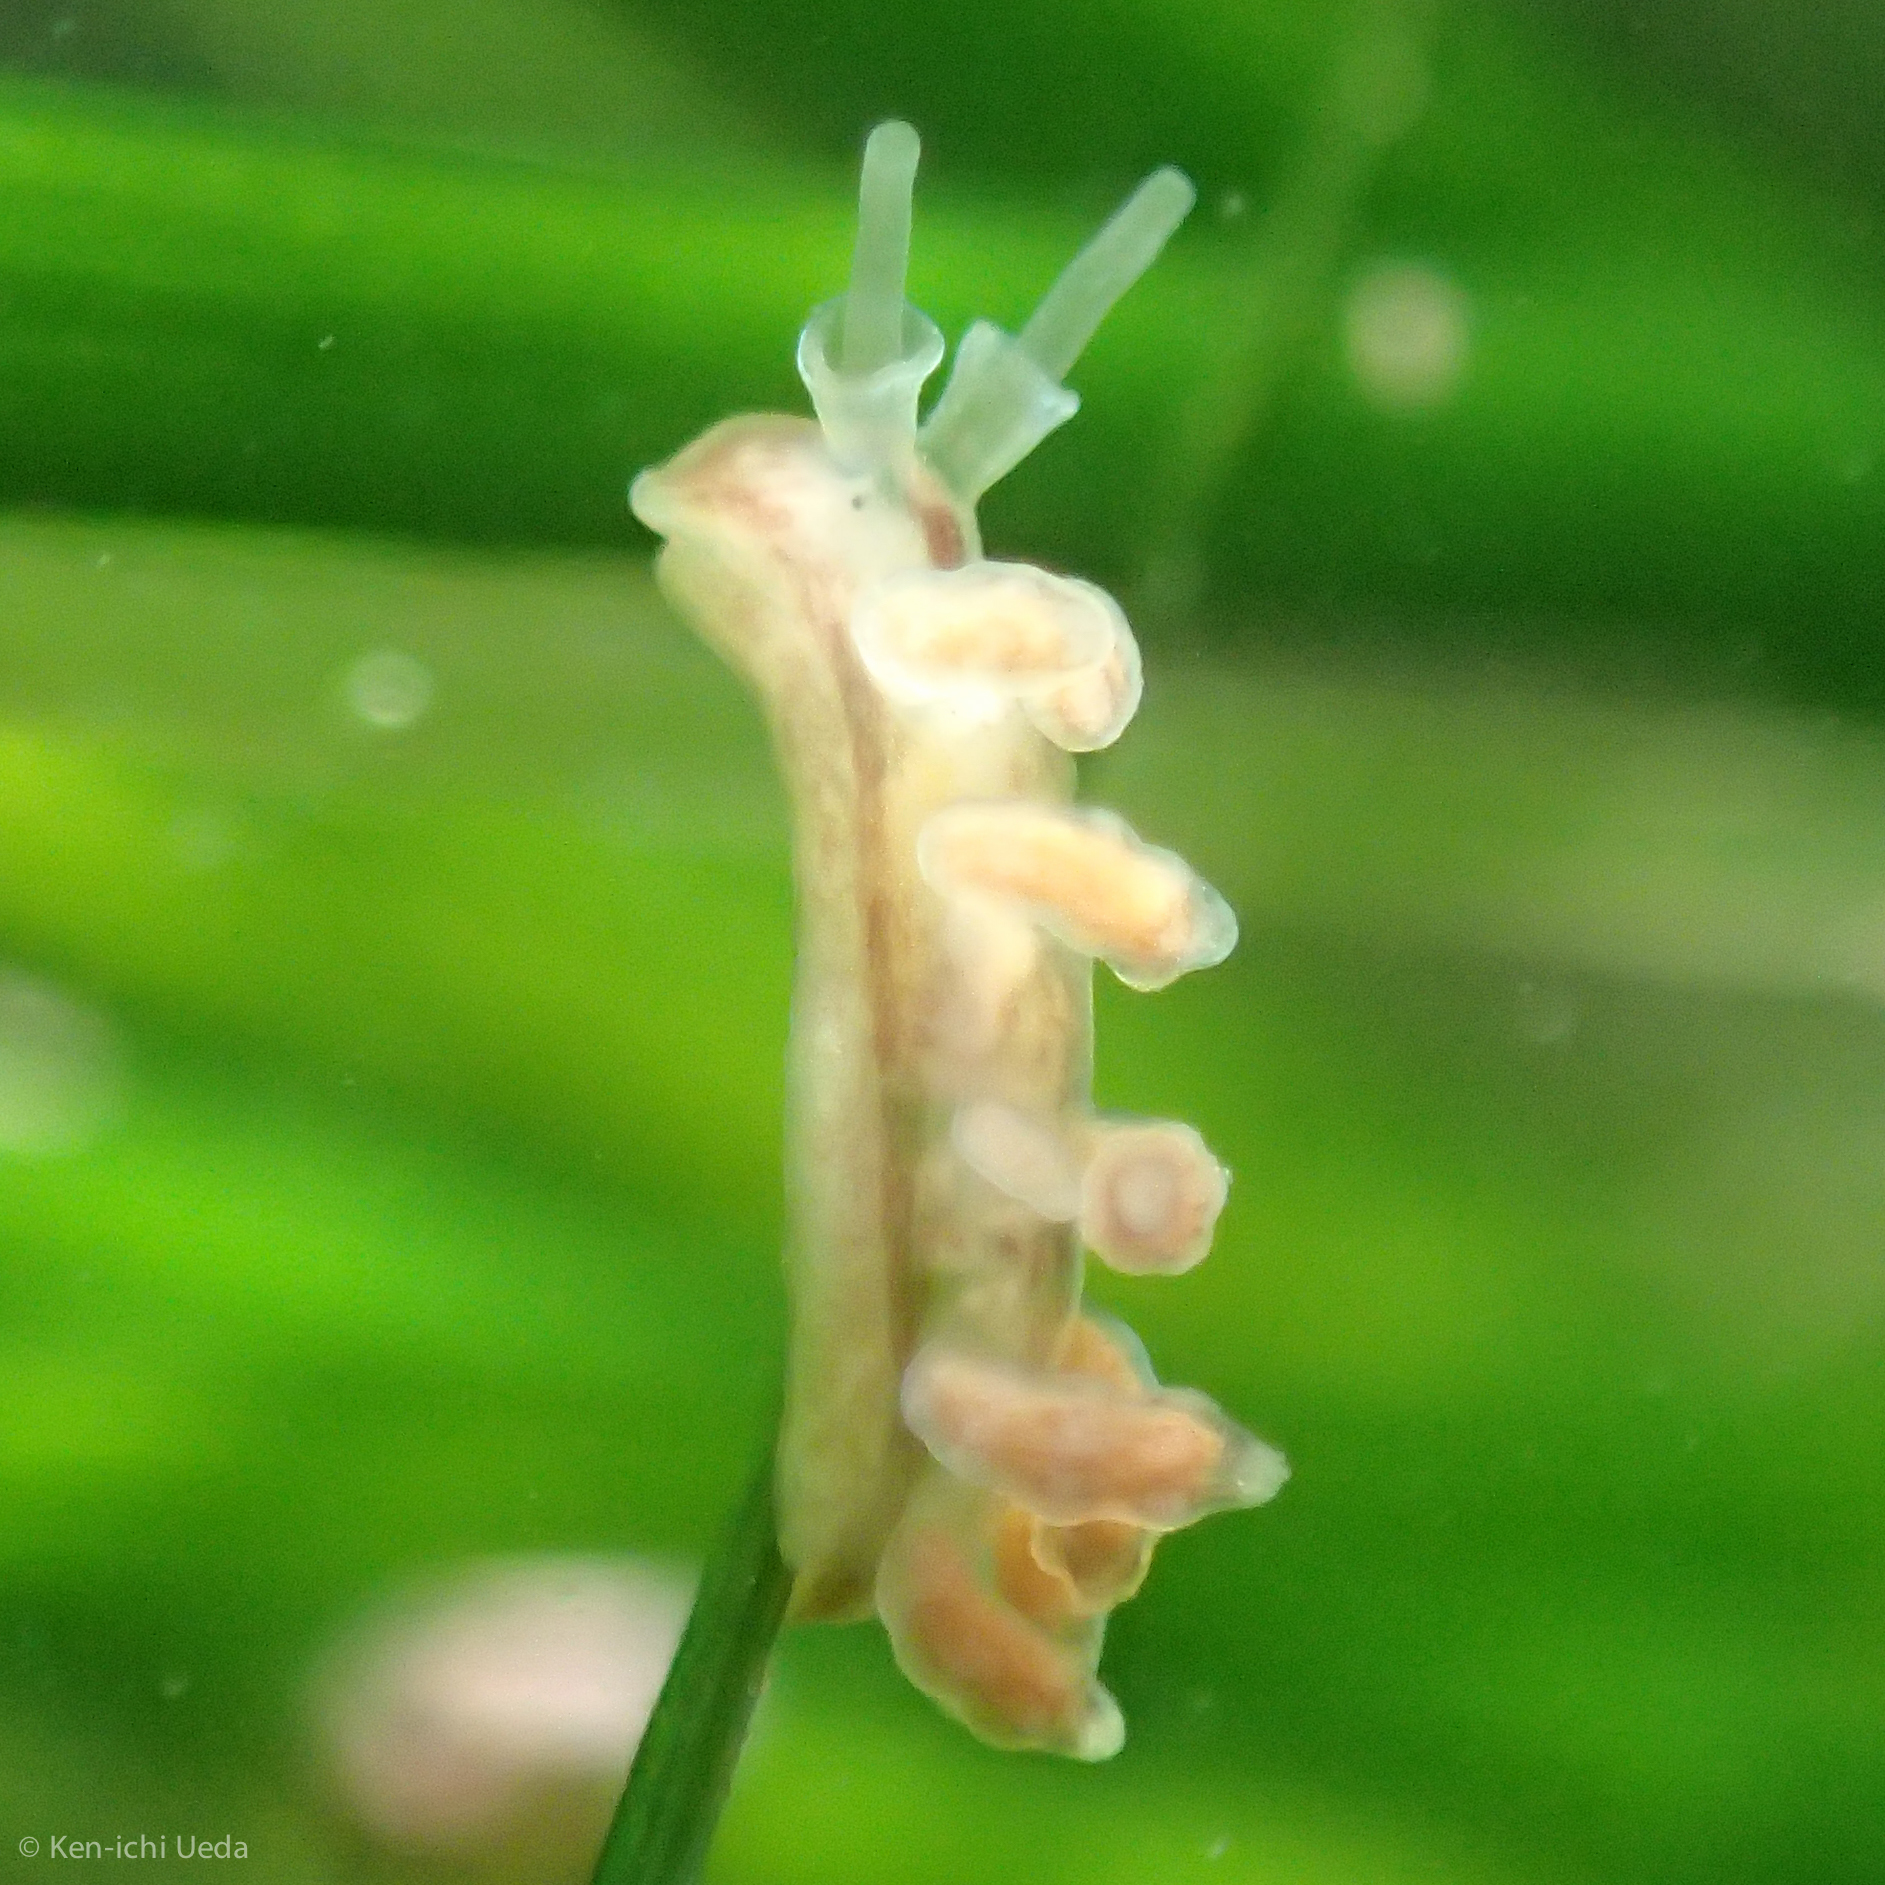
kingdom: Animalia
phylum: Mollusca
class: Gastropoda
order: Nudibranchia
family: Dotidae
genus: Doto
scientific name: Doto columbiana
